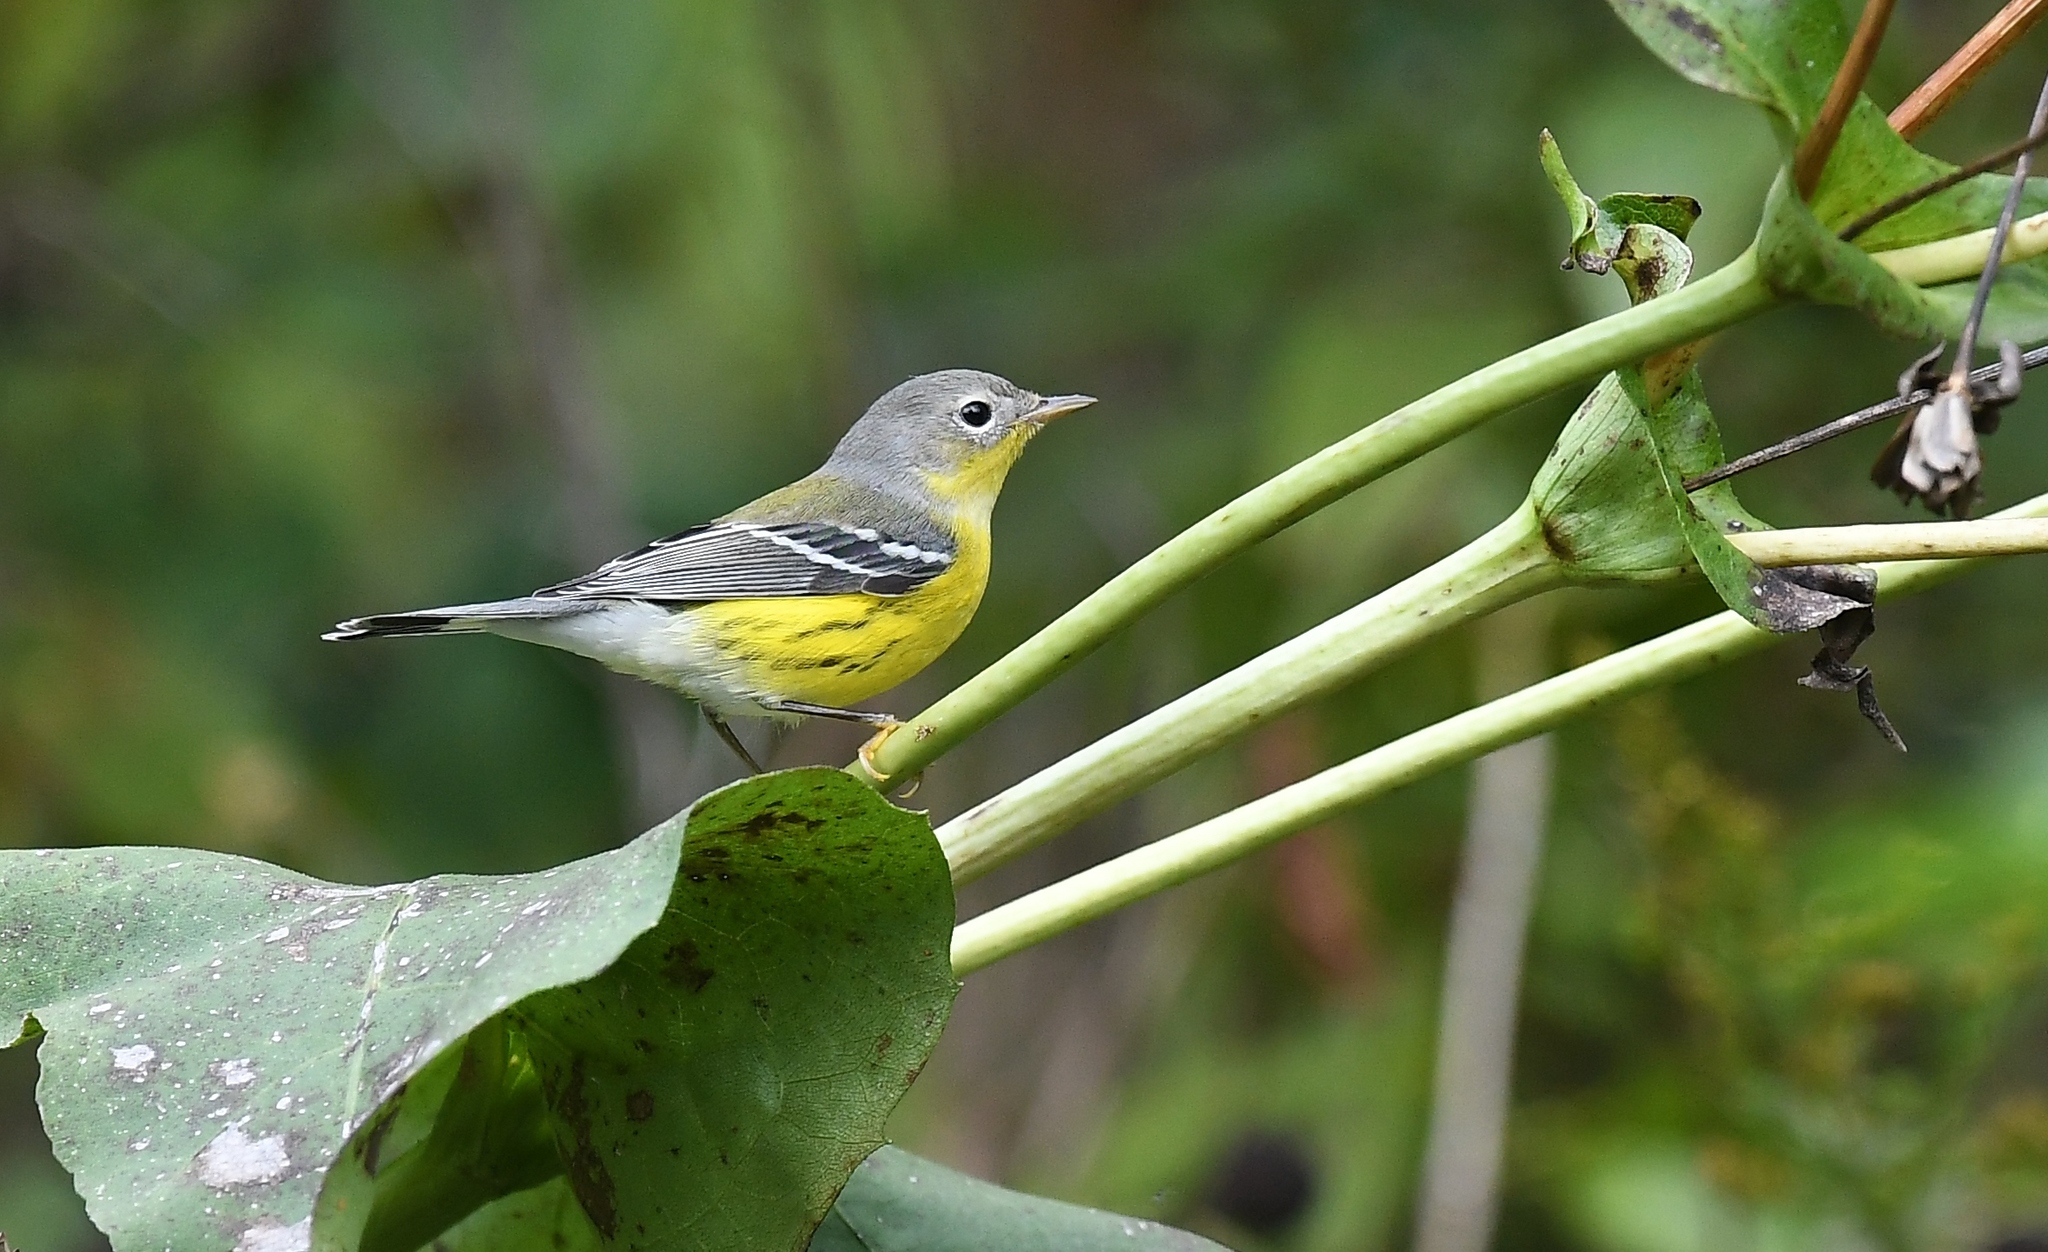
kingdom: Animalia
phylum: Chordata
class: Aves
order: Passeriformes
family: Parulidae
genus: Setophaga
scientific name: Setophaga magnolia
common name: Magnolia warbler
